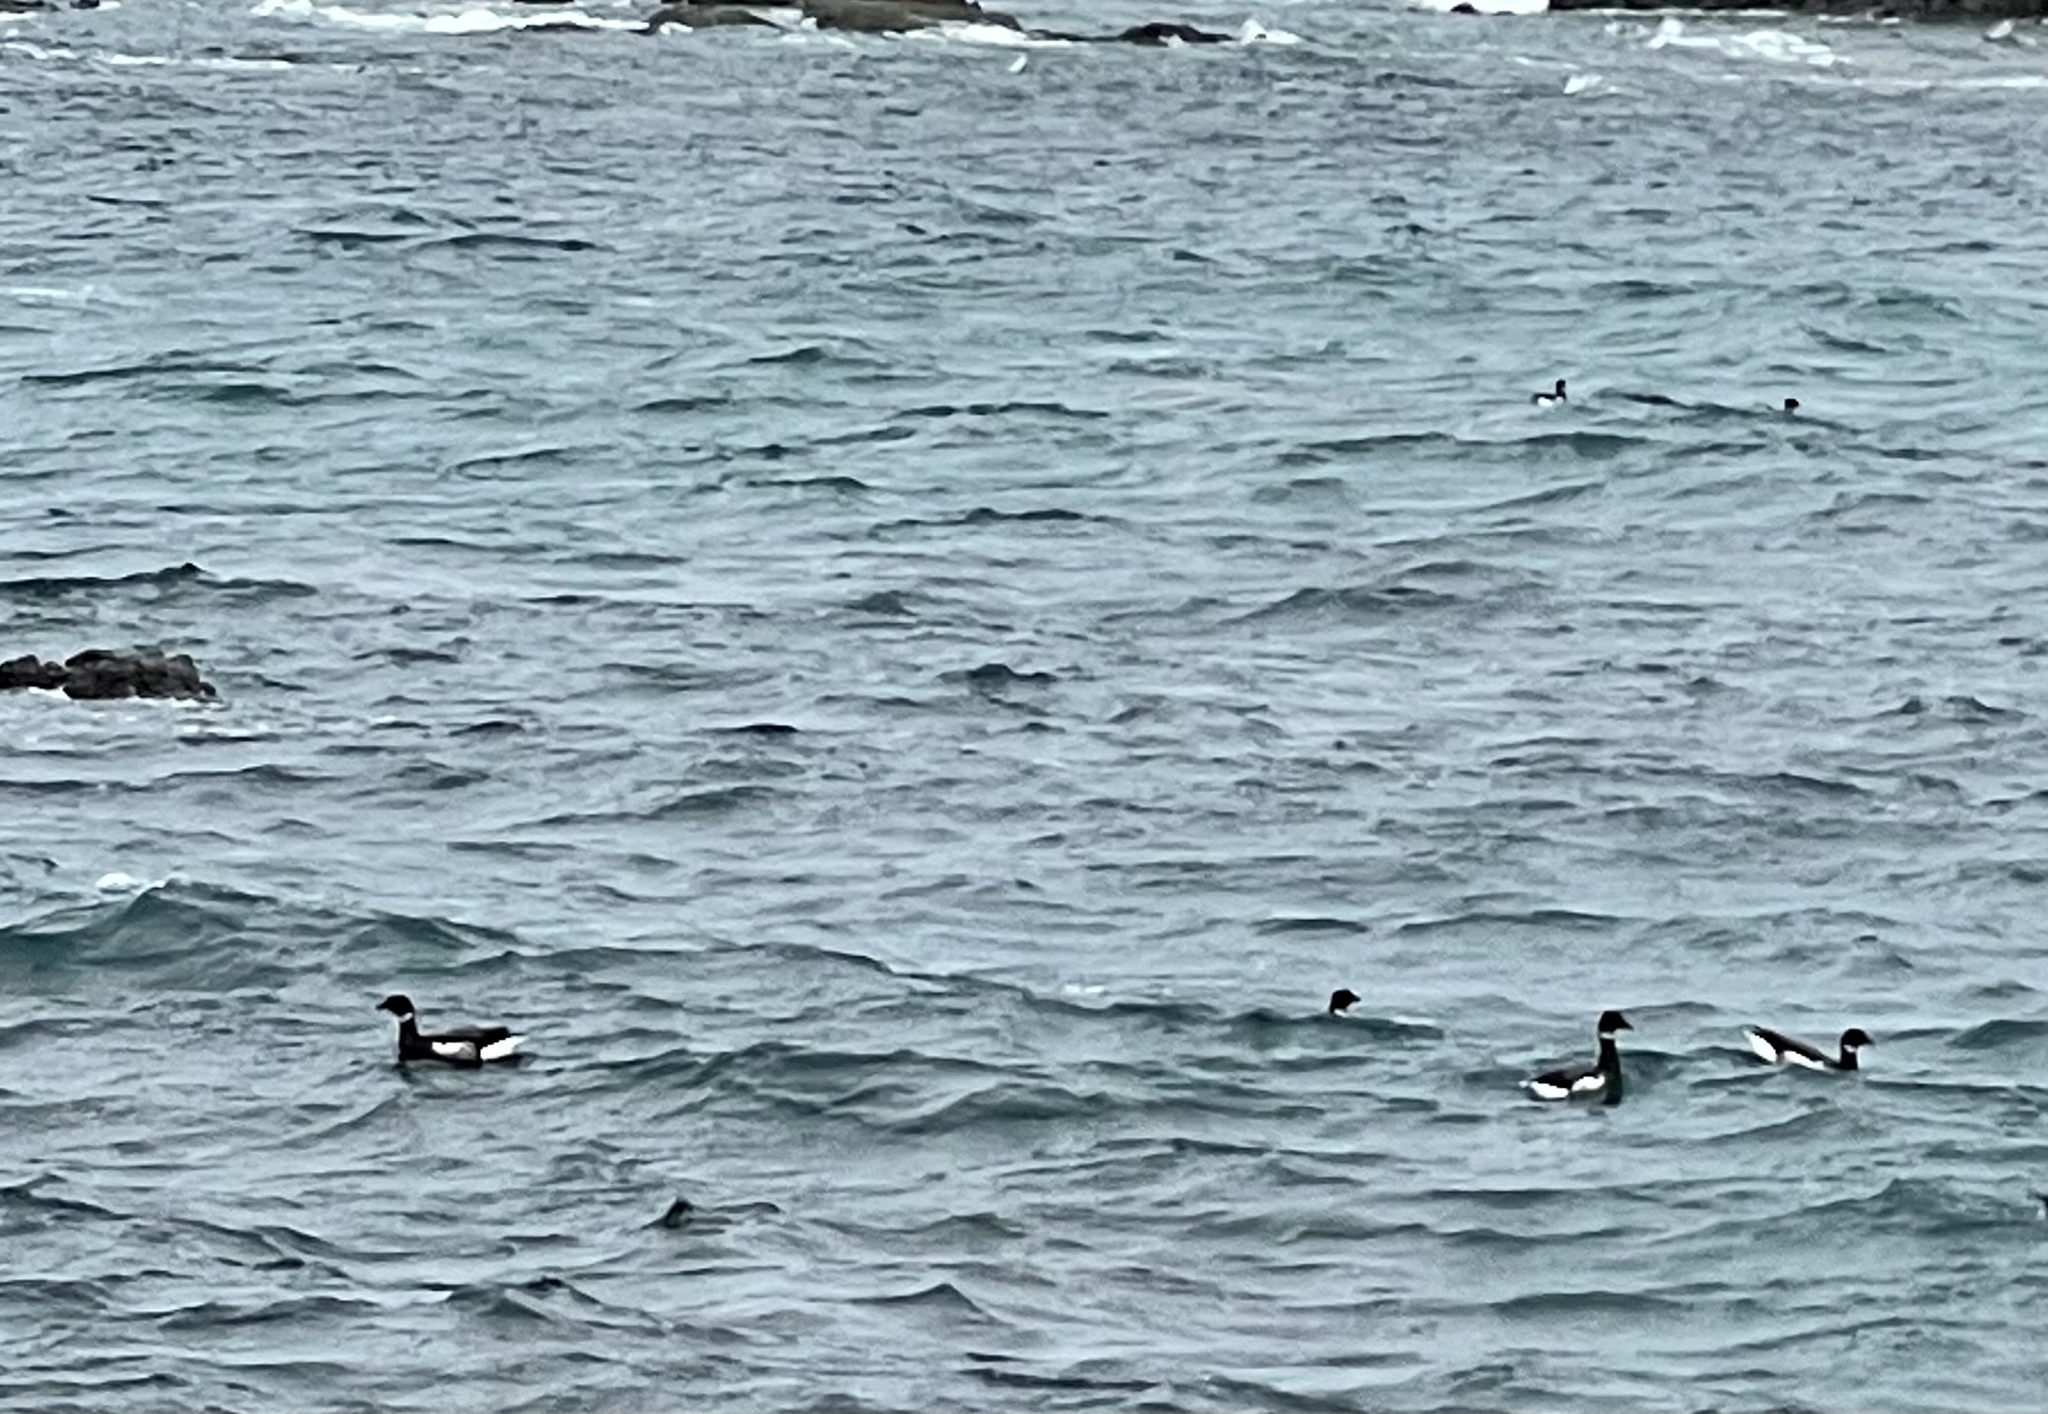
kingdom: Animalia
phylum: Chordata
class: Aves
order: Anseriformes
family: Anatidae
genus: Branta
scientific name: Branta bernicla
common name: Brant goose
